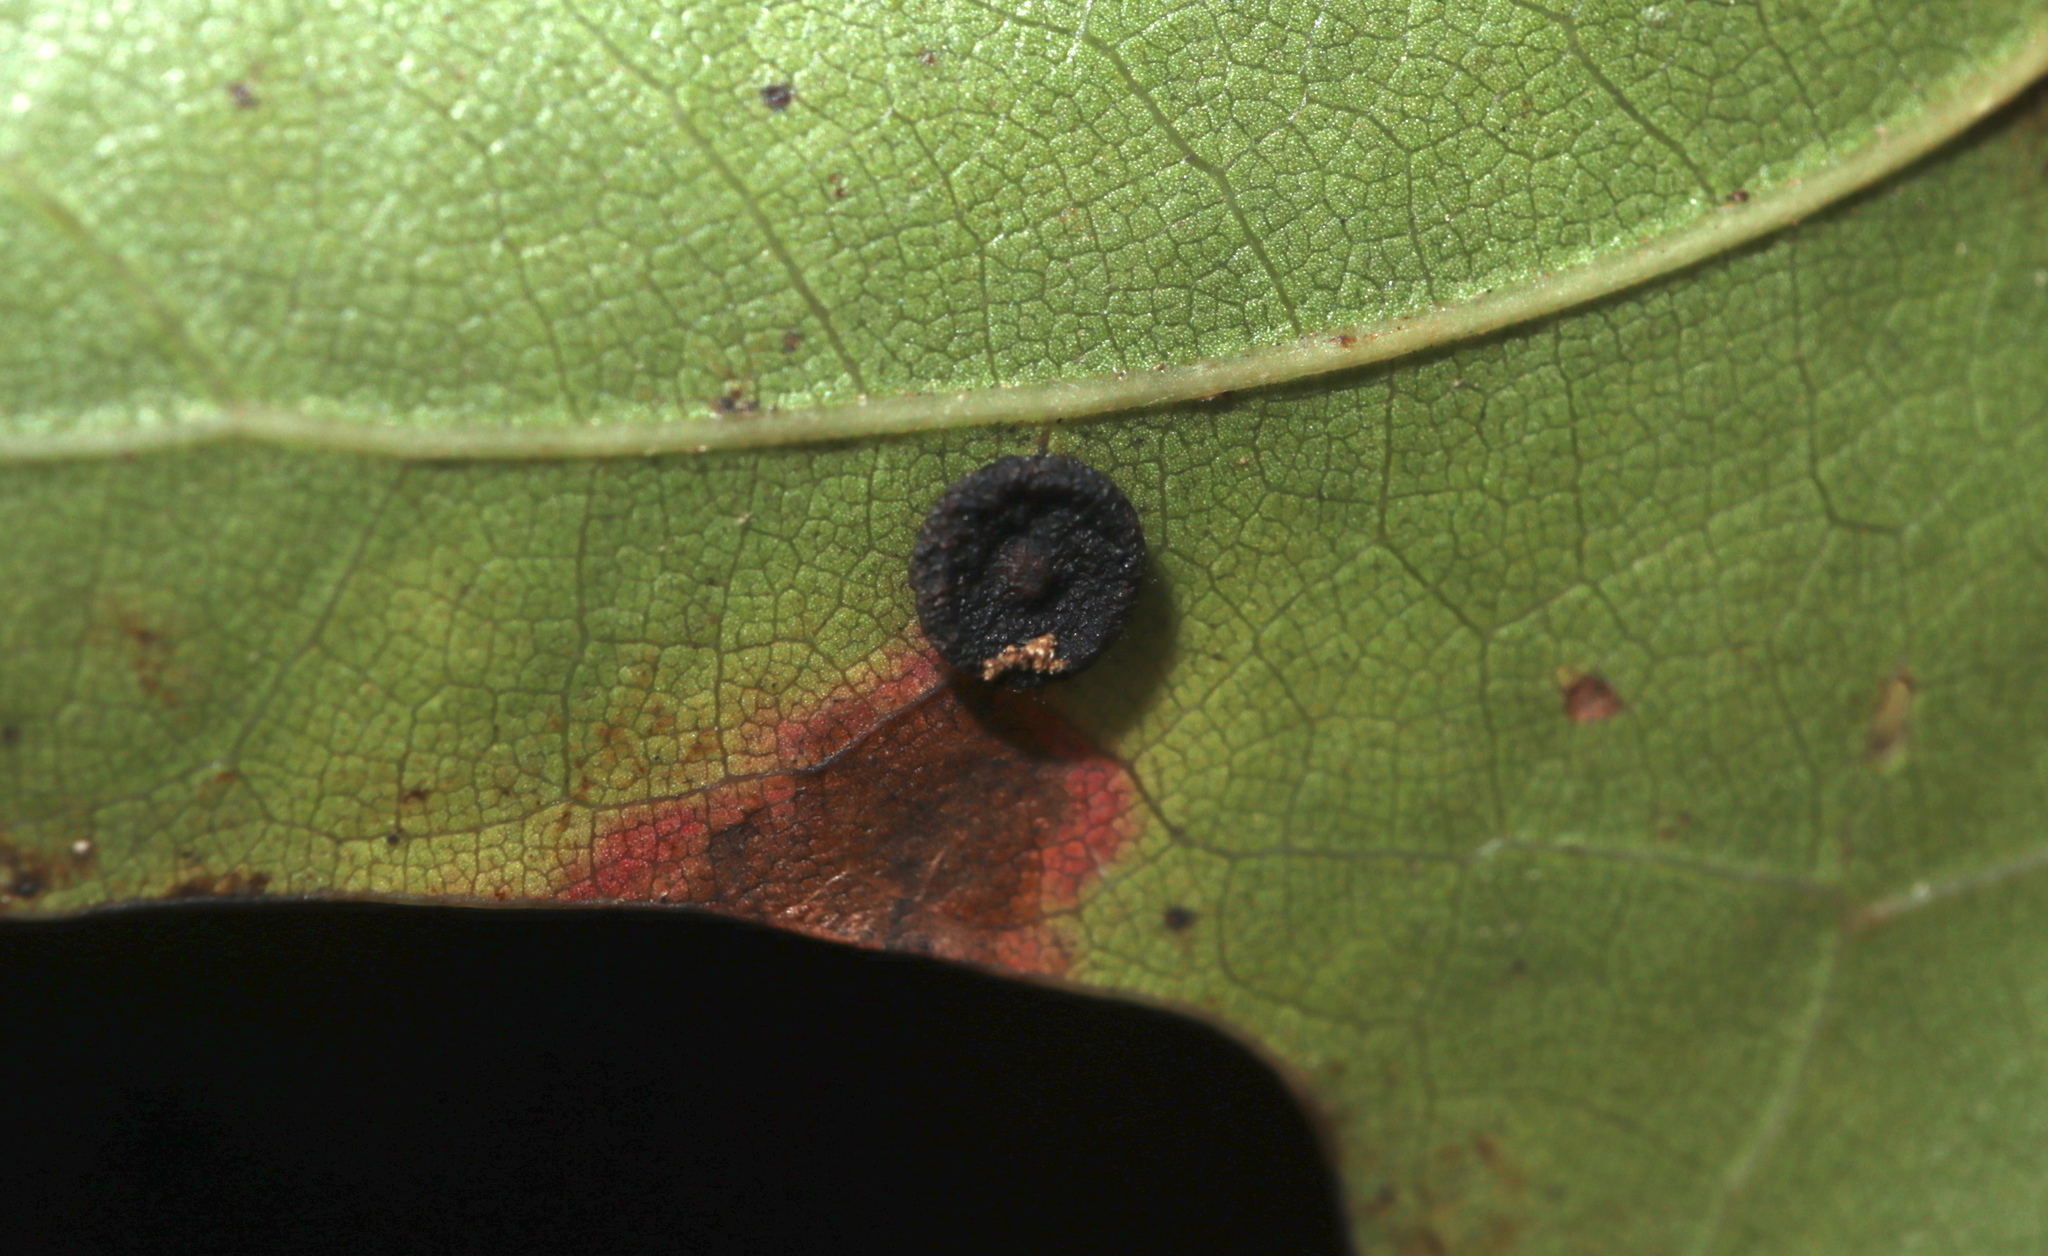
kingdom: Animalia
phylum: Arthropoda
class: Insecta
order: Hymenoptera
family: Cynipidae
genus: Dryocosmus
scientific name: Dryocosmus
